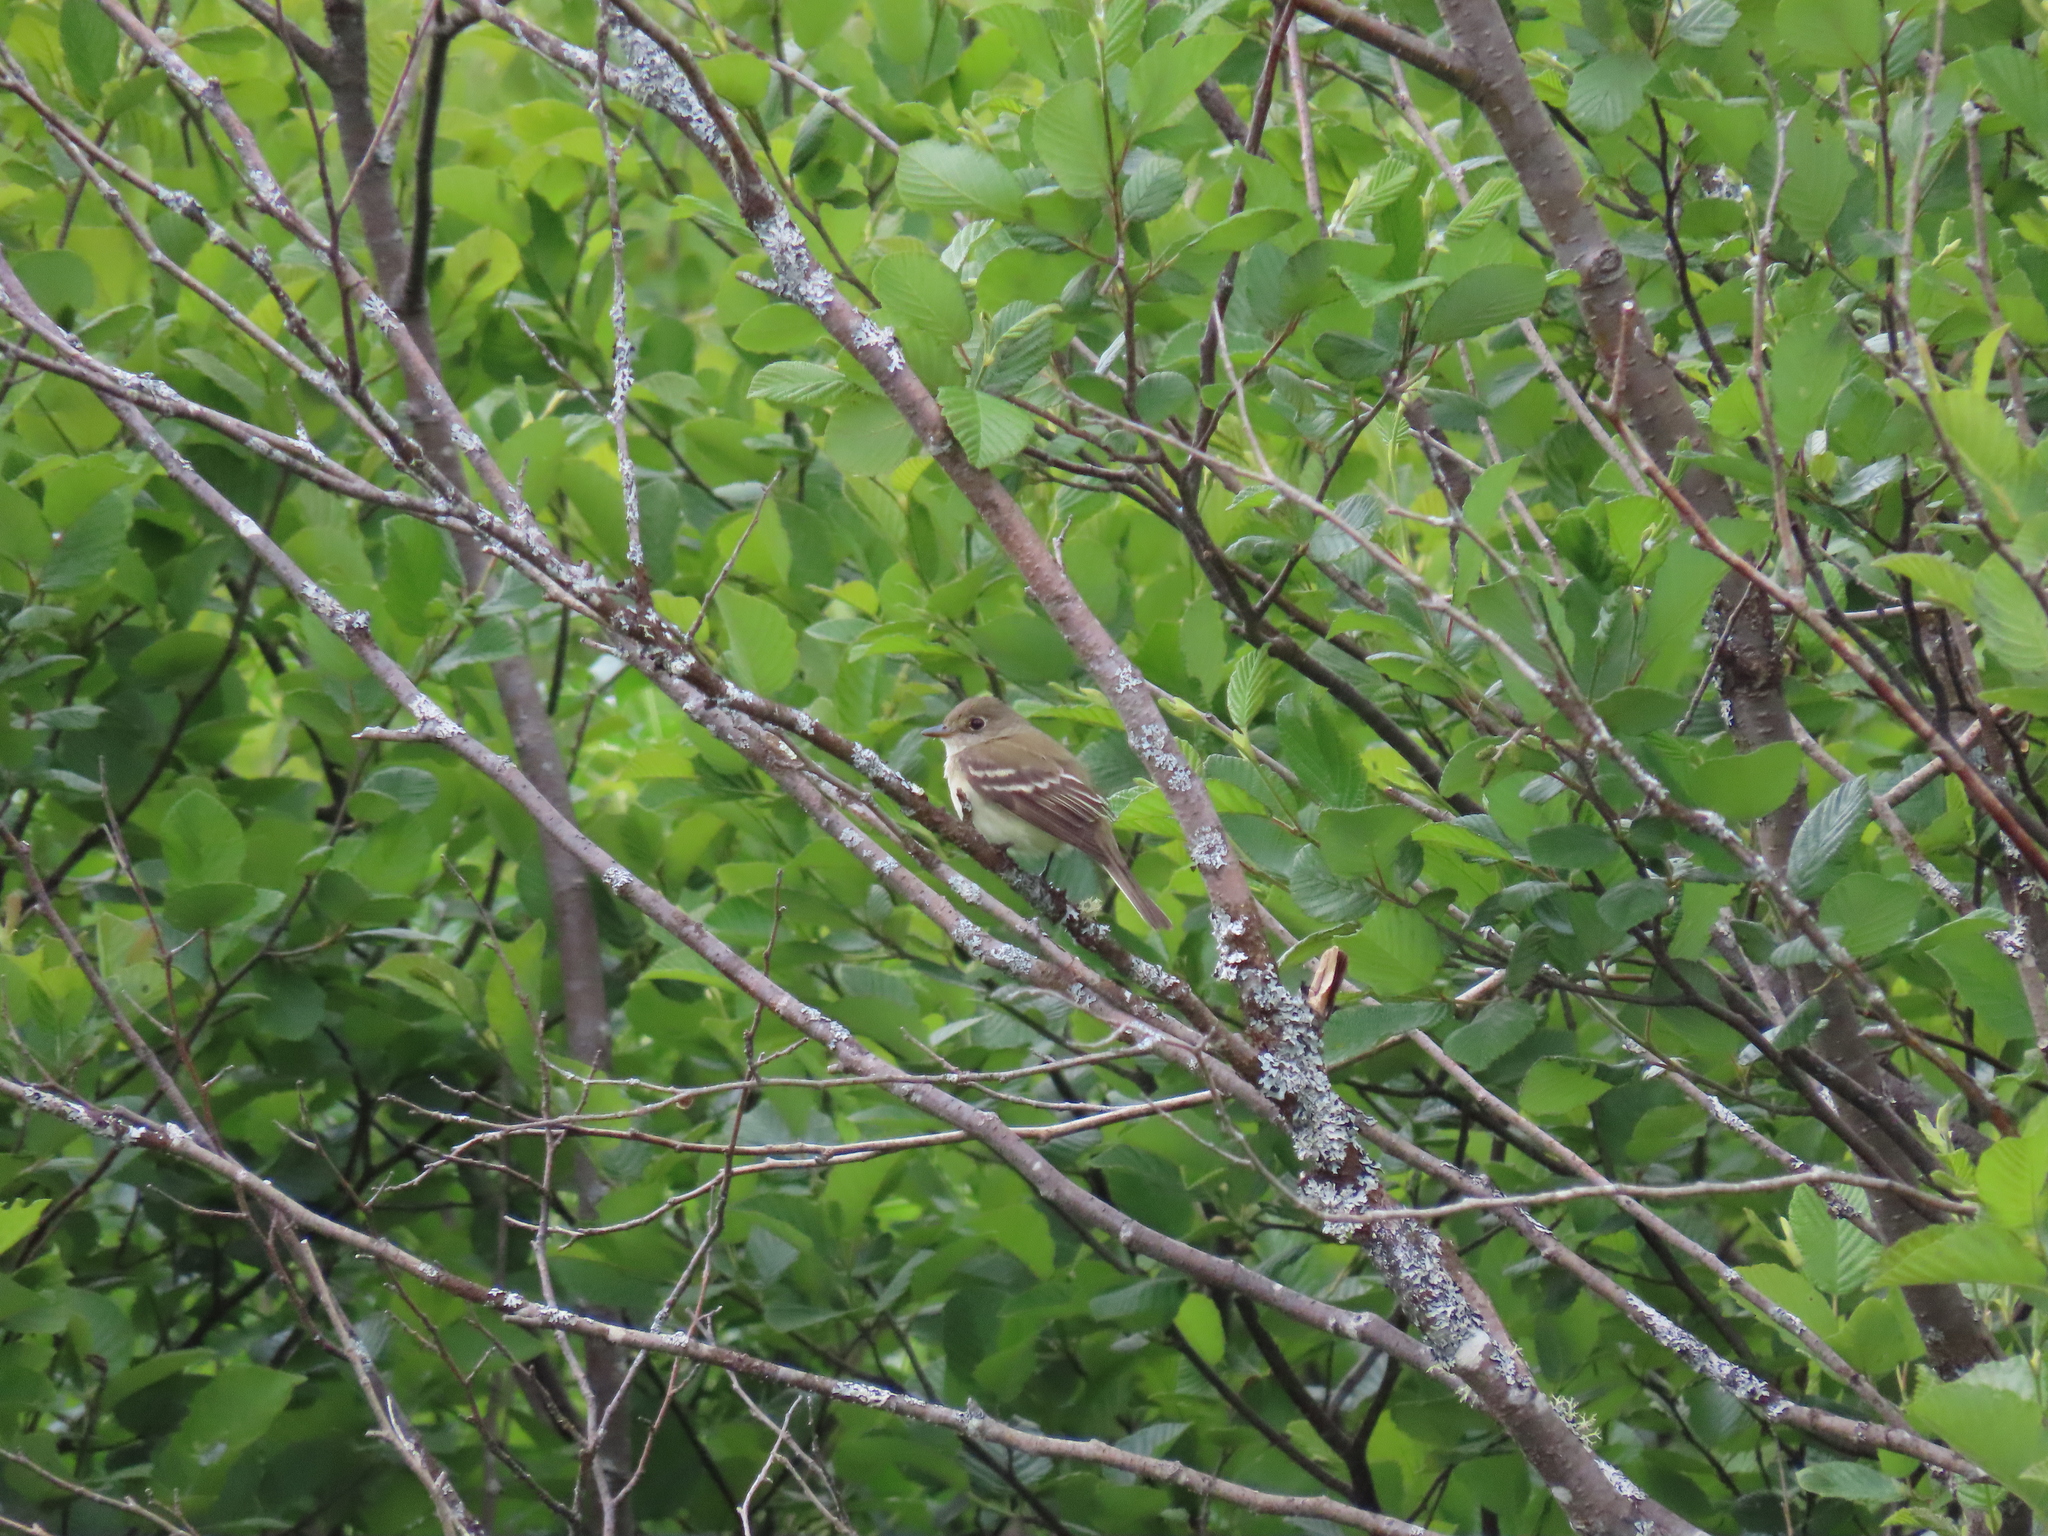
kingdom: Animalia
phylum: Chordata
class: Aves
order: Passeriformes
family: Tyrannidae
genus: Empidonax
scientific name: Empidonax traillii
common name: Willow flycatcher
